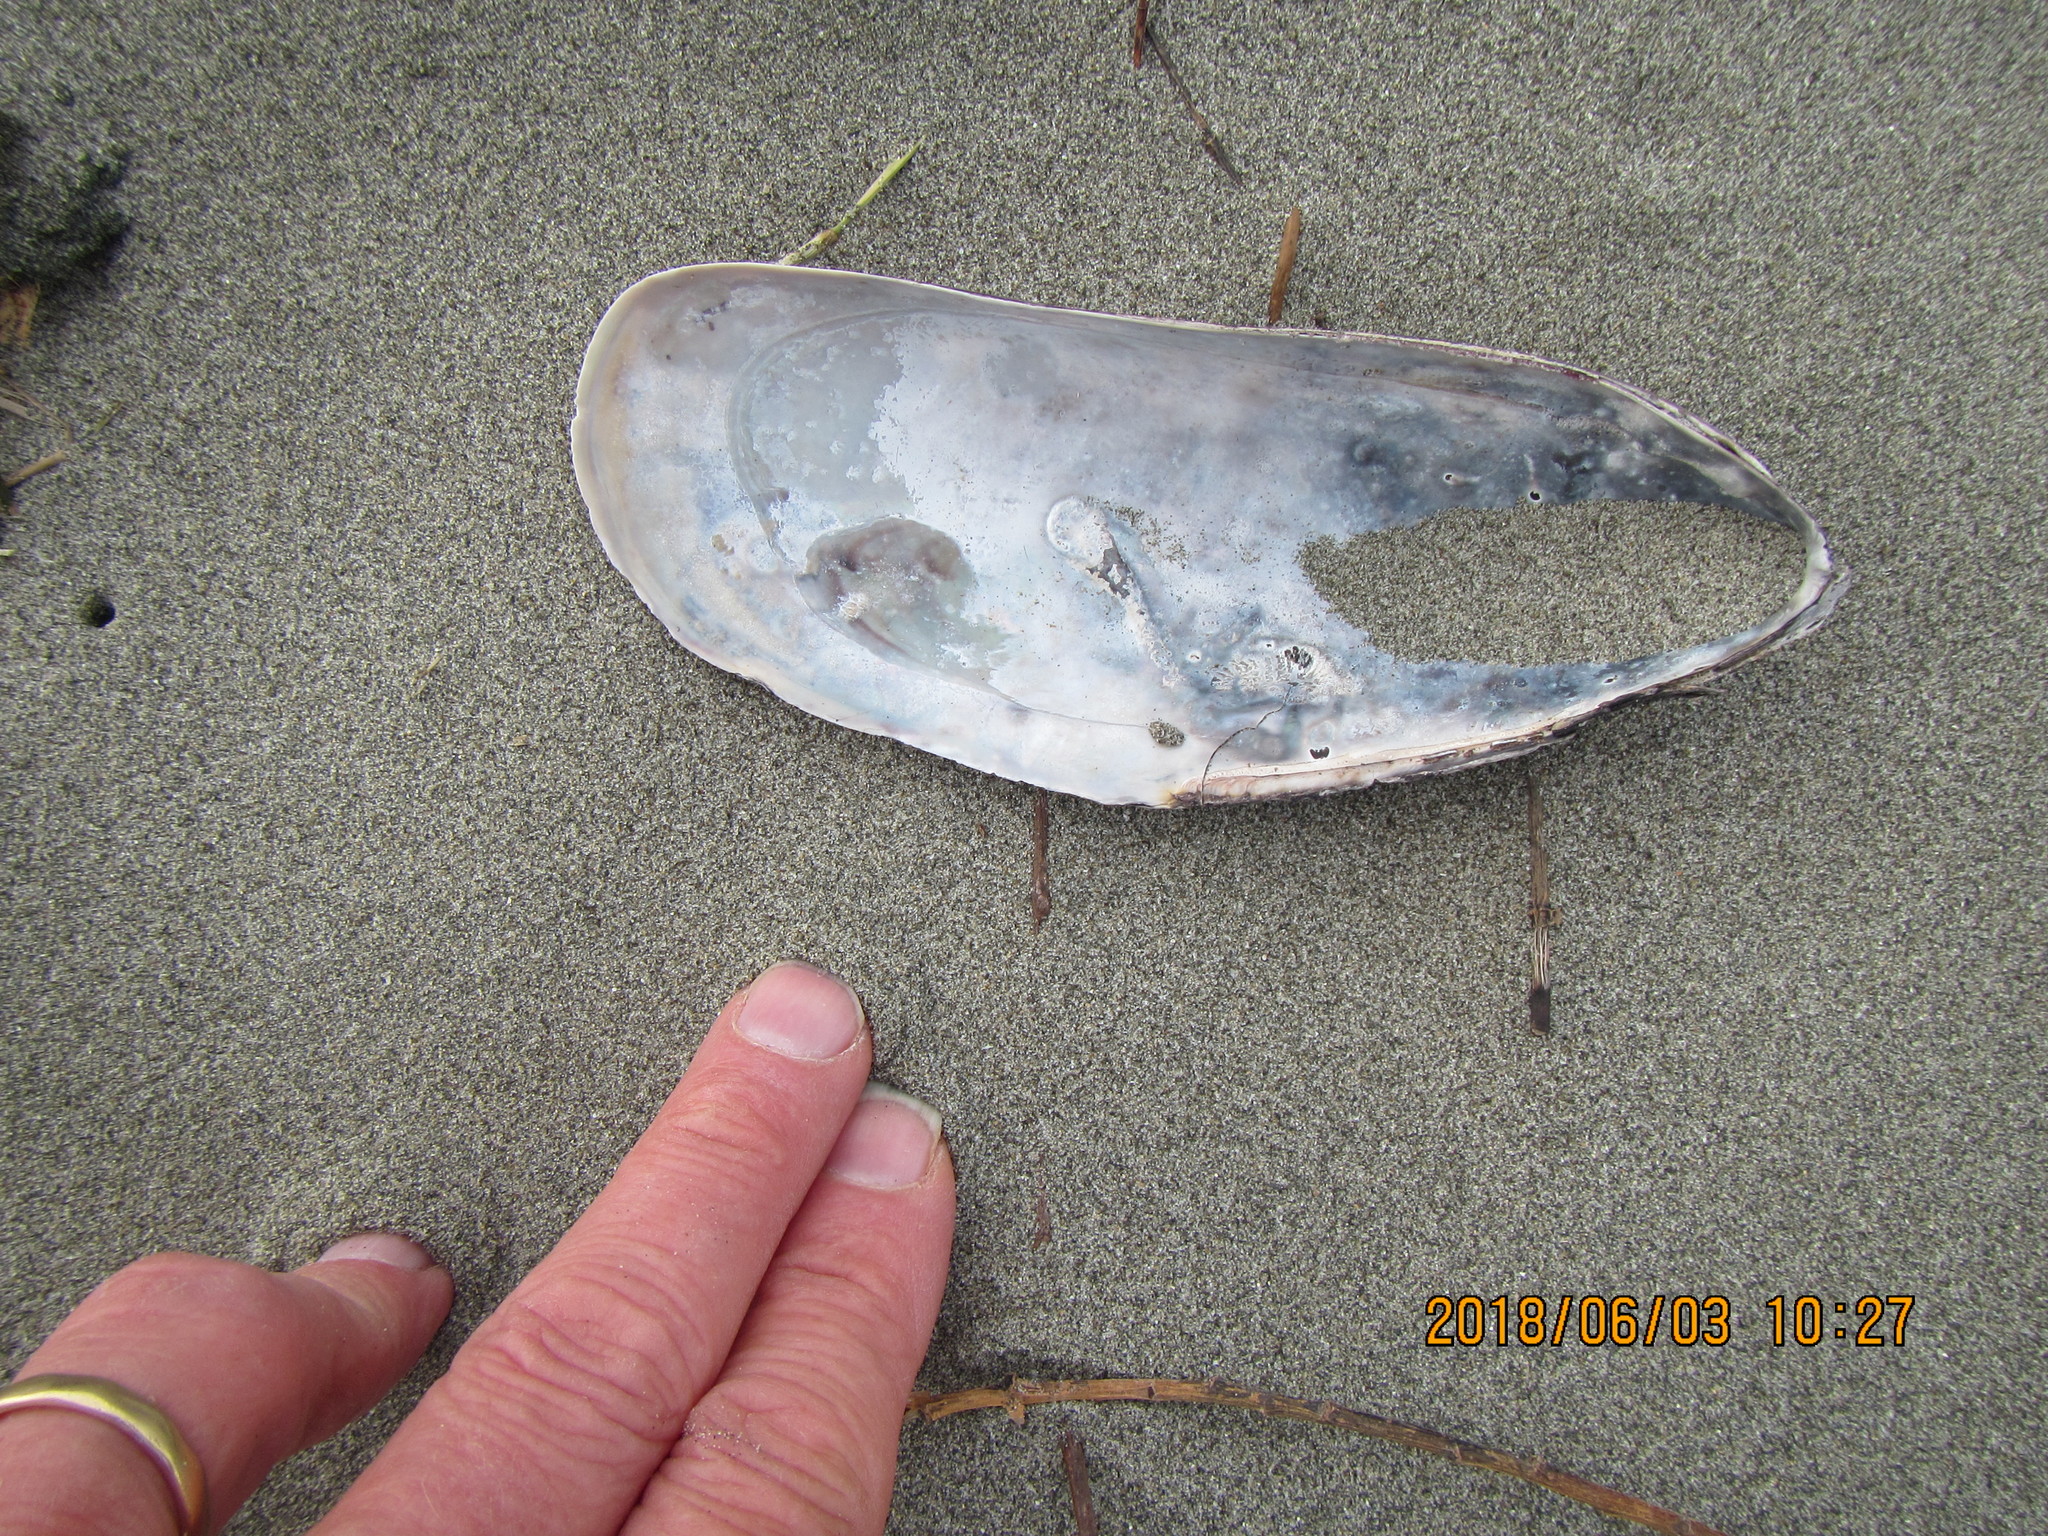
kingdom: Animalia
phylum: Mollusca
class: Bivalvia
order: Mytilida
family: Mytilidae
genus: Perna
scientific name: Perna canaliculus
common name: New zealand greenshelltm
